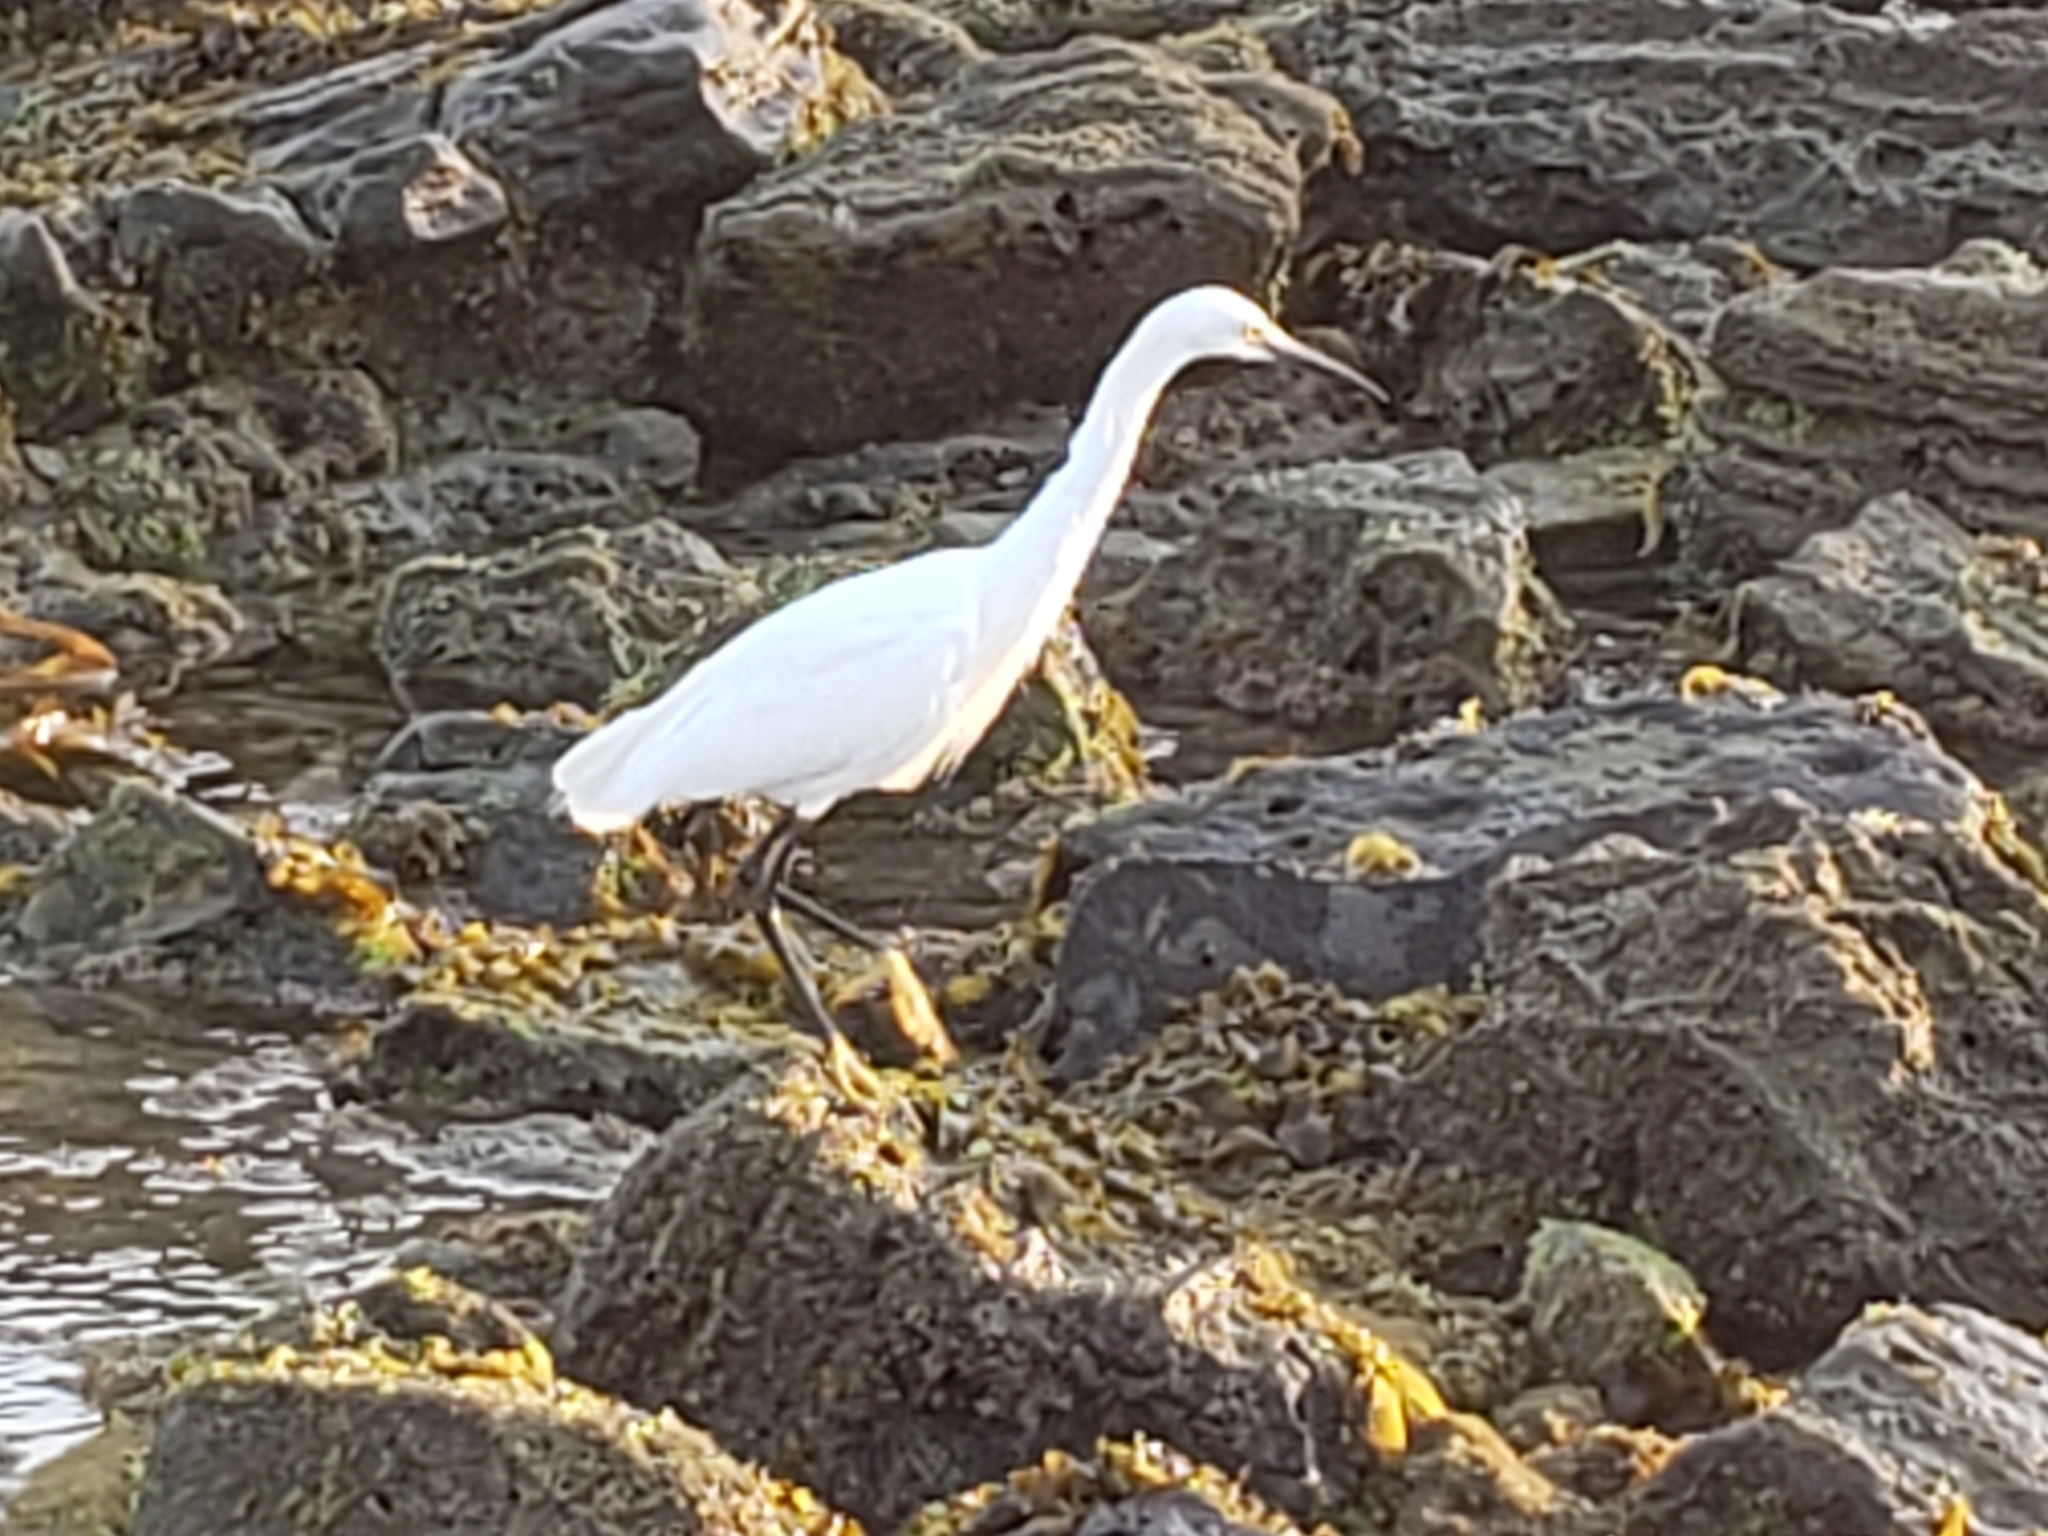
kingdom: Animalia
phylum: Chordata
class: Aves
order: Pelecaniformes
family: Ardeidae
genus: Egretta
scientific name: Egretta thula
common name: Snowy egret
